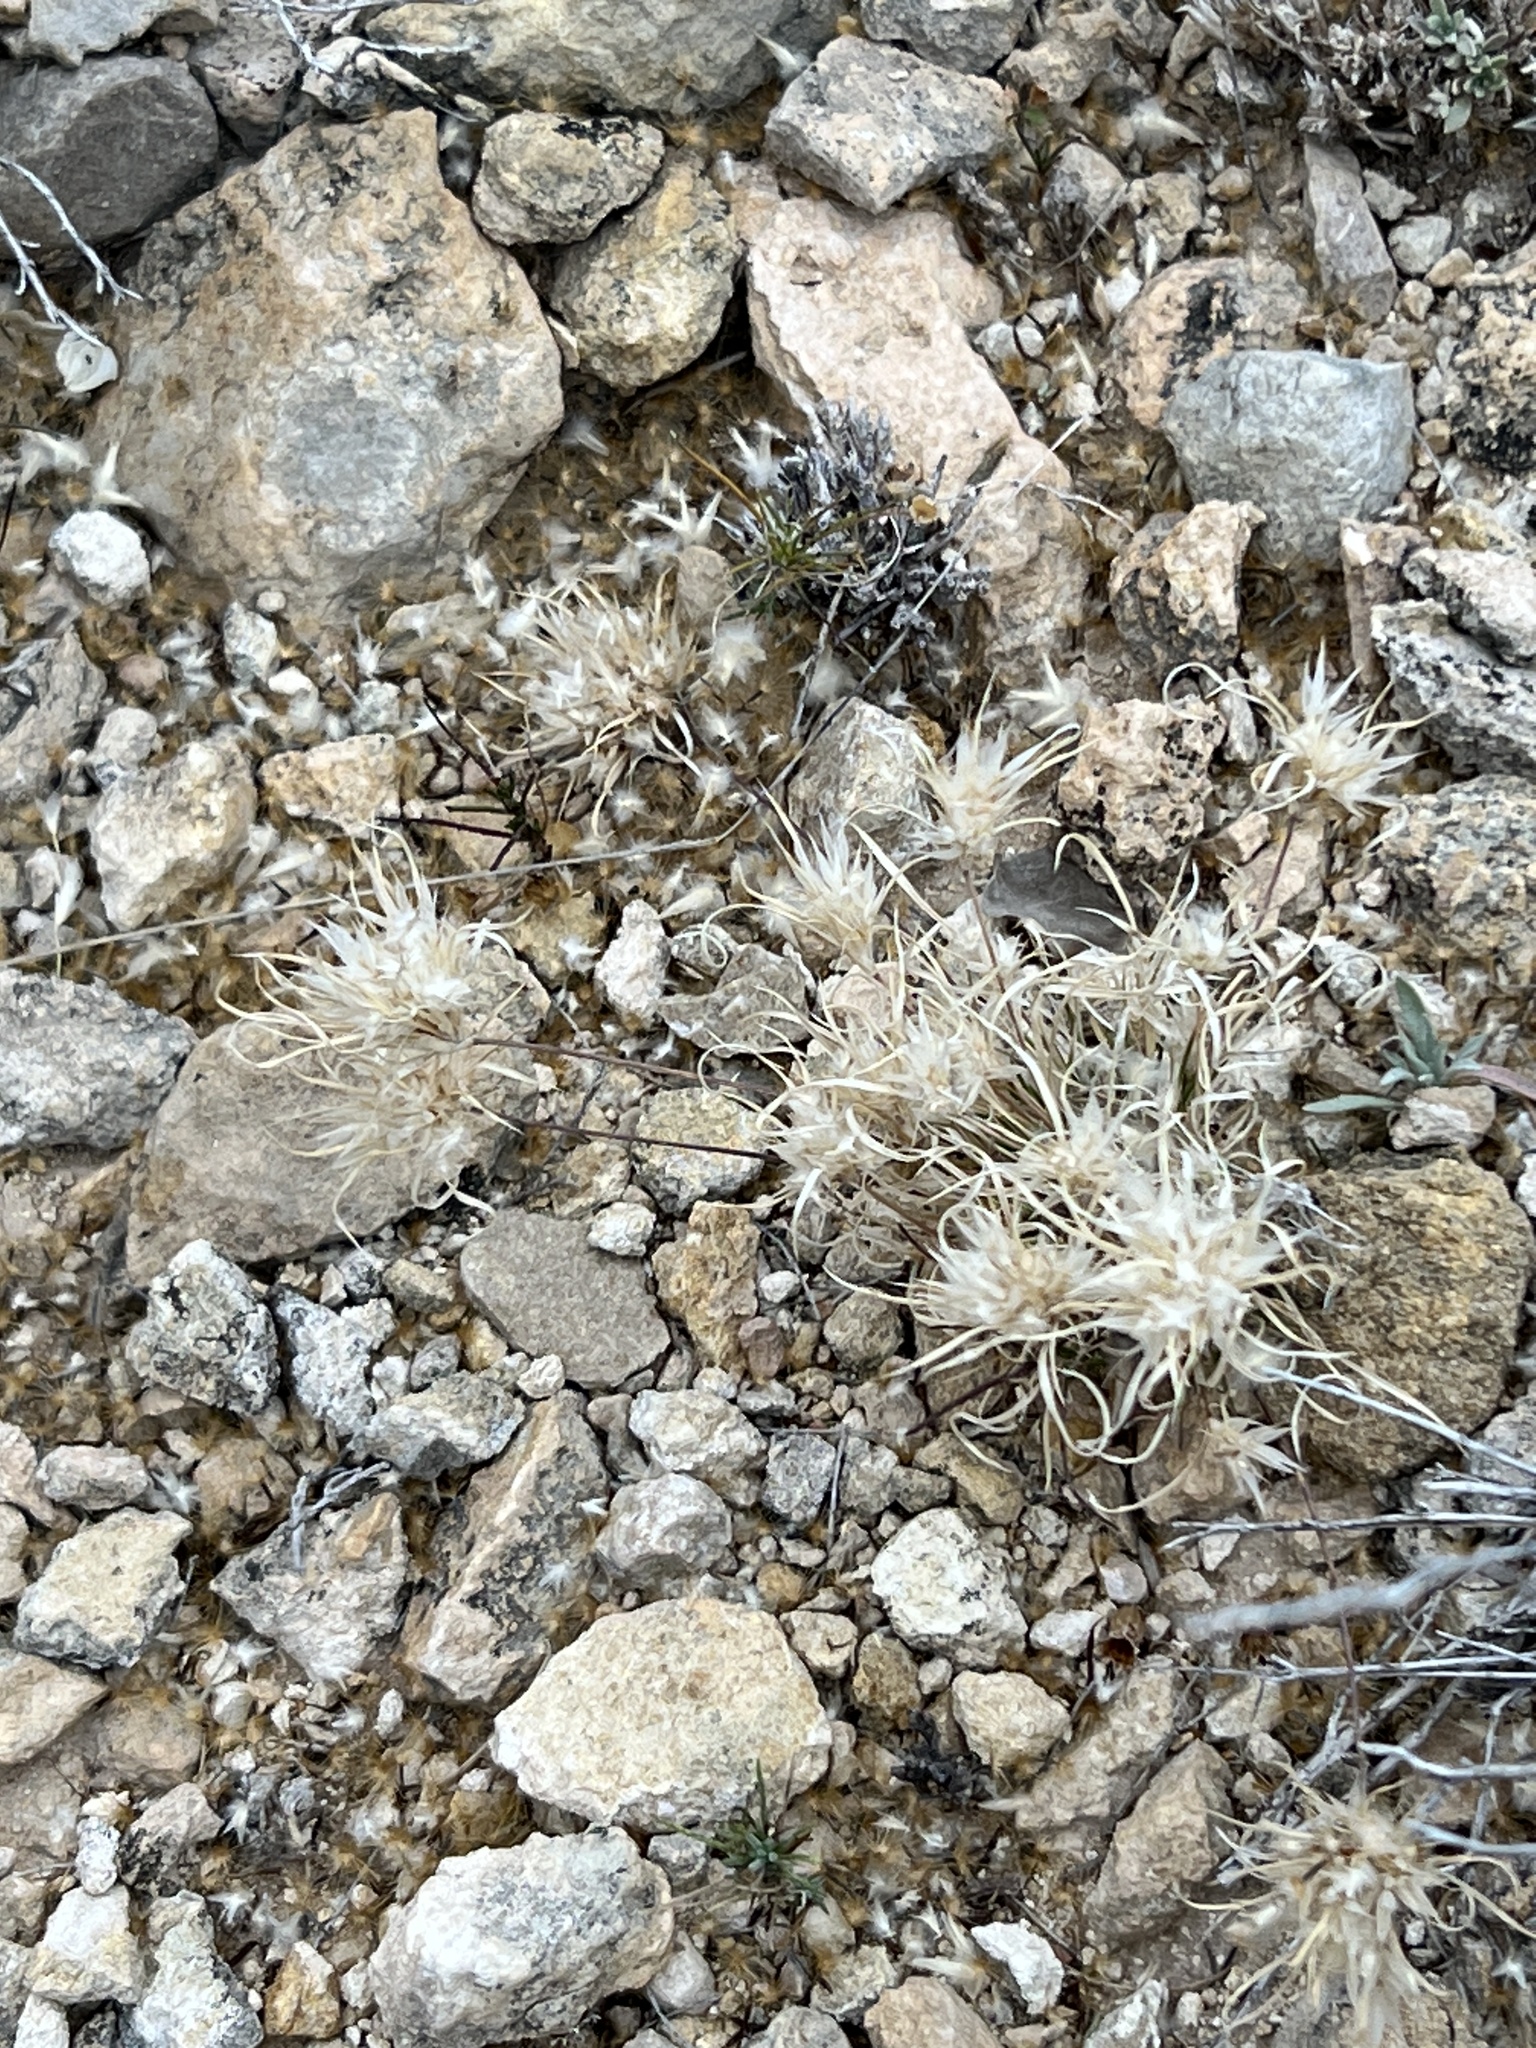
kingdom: Plantae
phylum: Tracheophyta
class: Liliopsida
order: Poales
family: Poaceae
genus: Dasyochloa
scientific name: Dasyochloa pulchella
